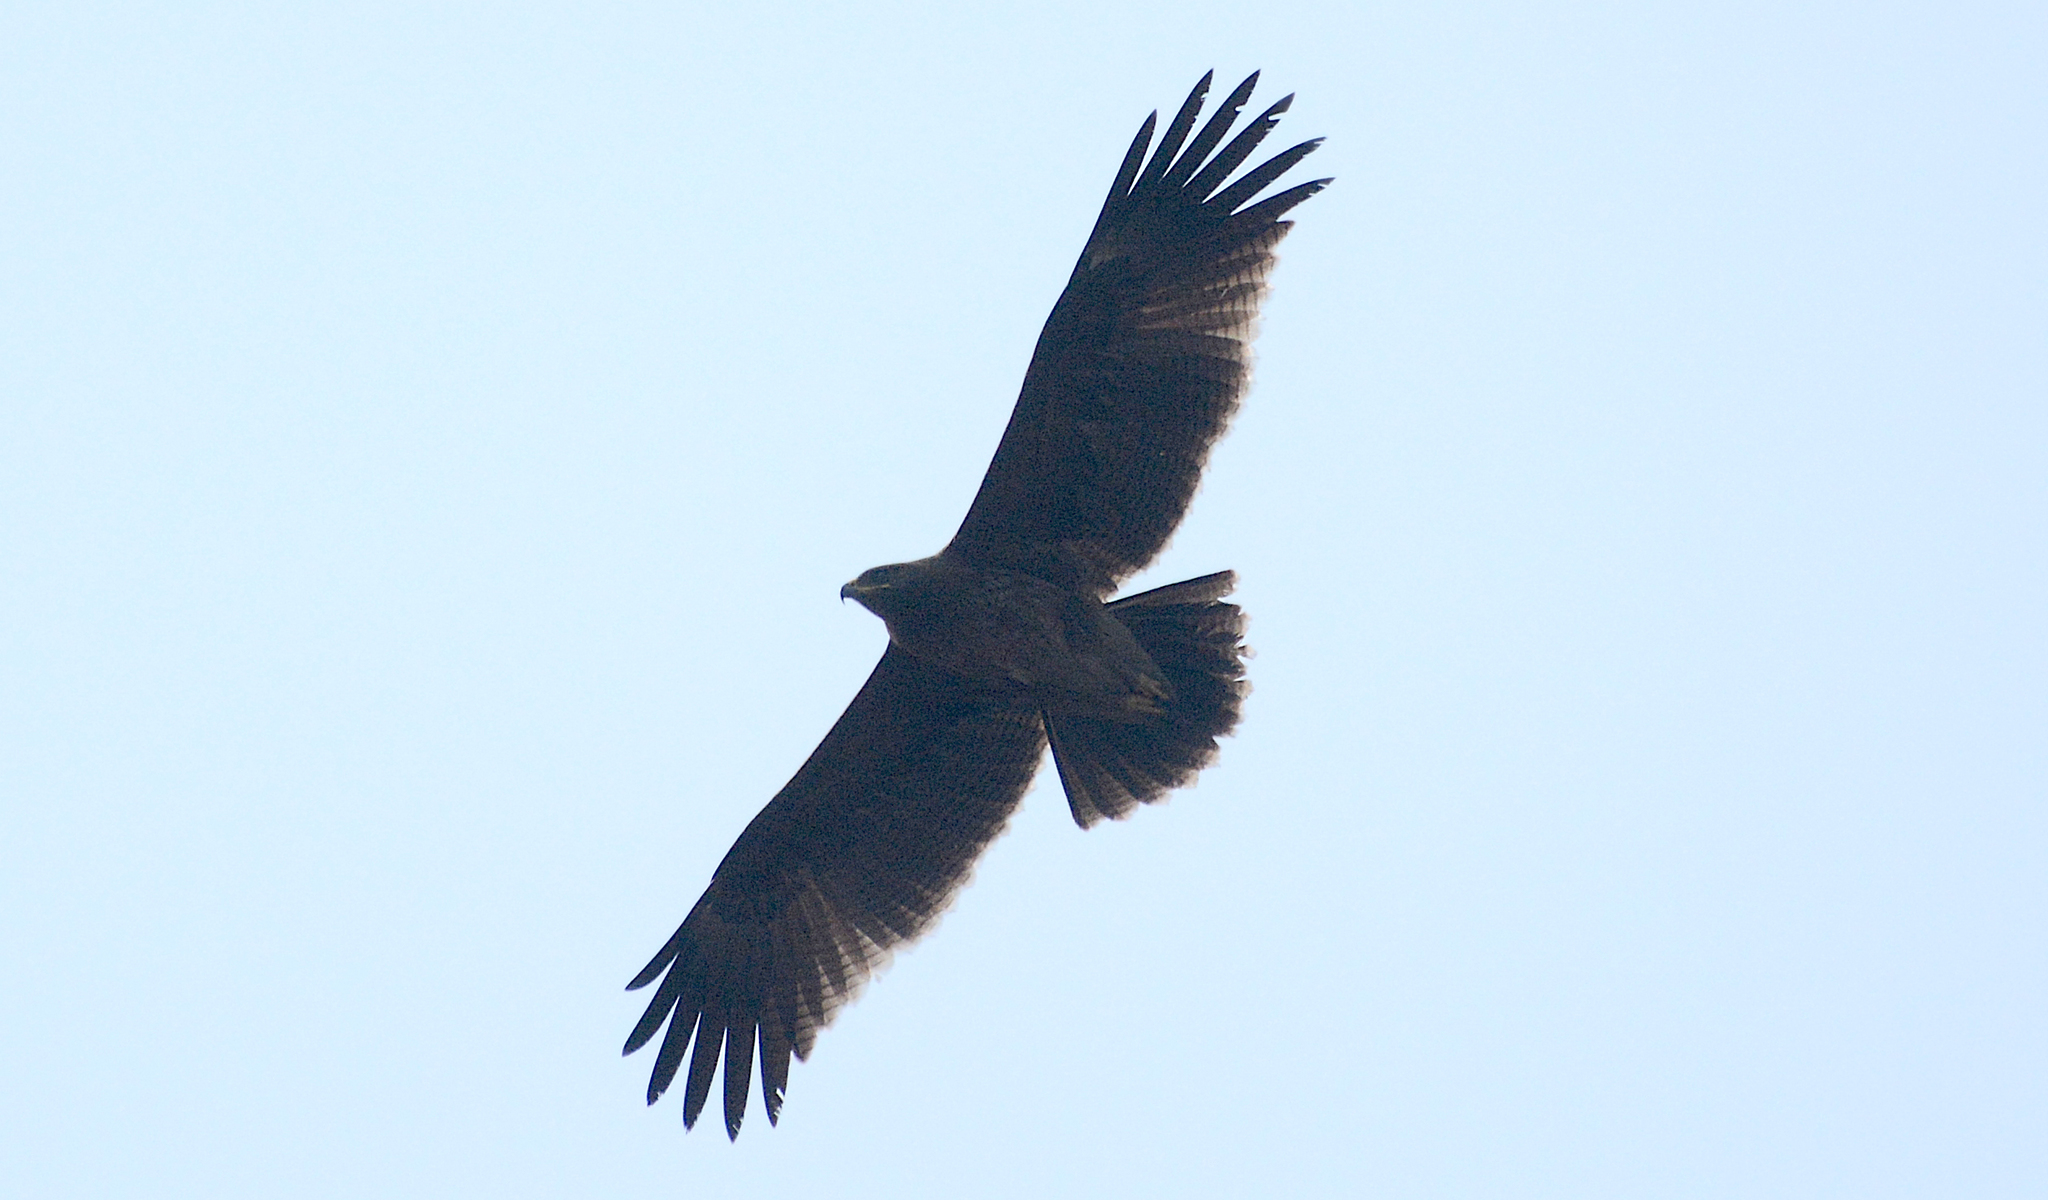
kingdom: Animalia
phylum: Chordata
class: Aves
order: Accipitriformes
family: Accipitridae
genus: Aquila
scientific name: Aquila hastata
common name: Indian spotted eagle
